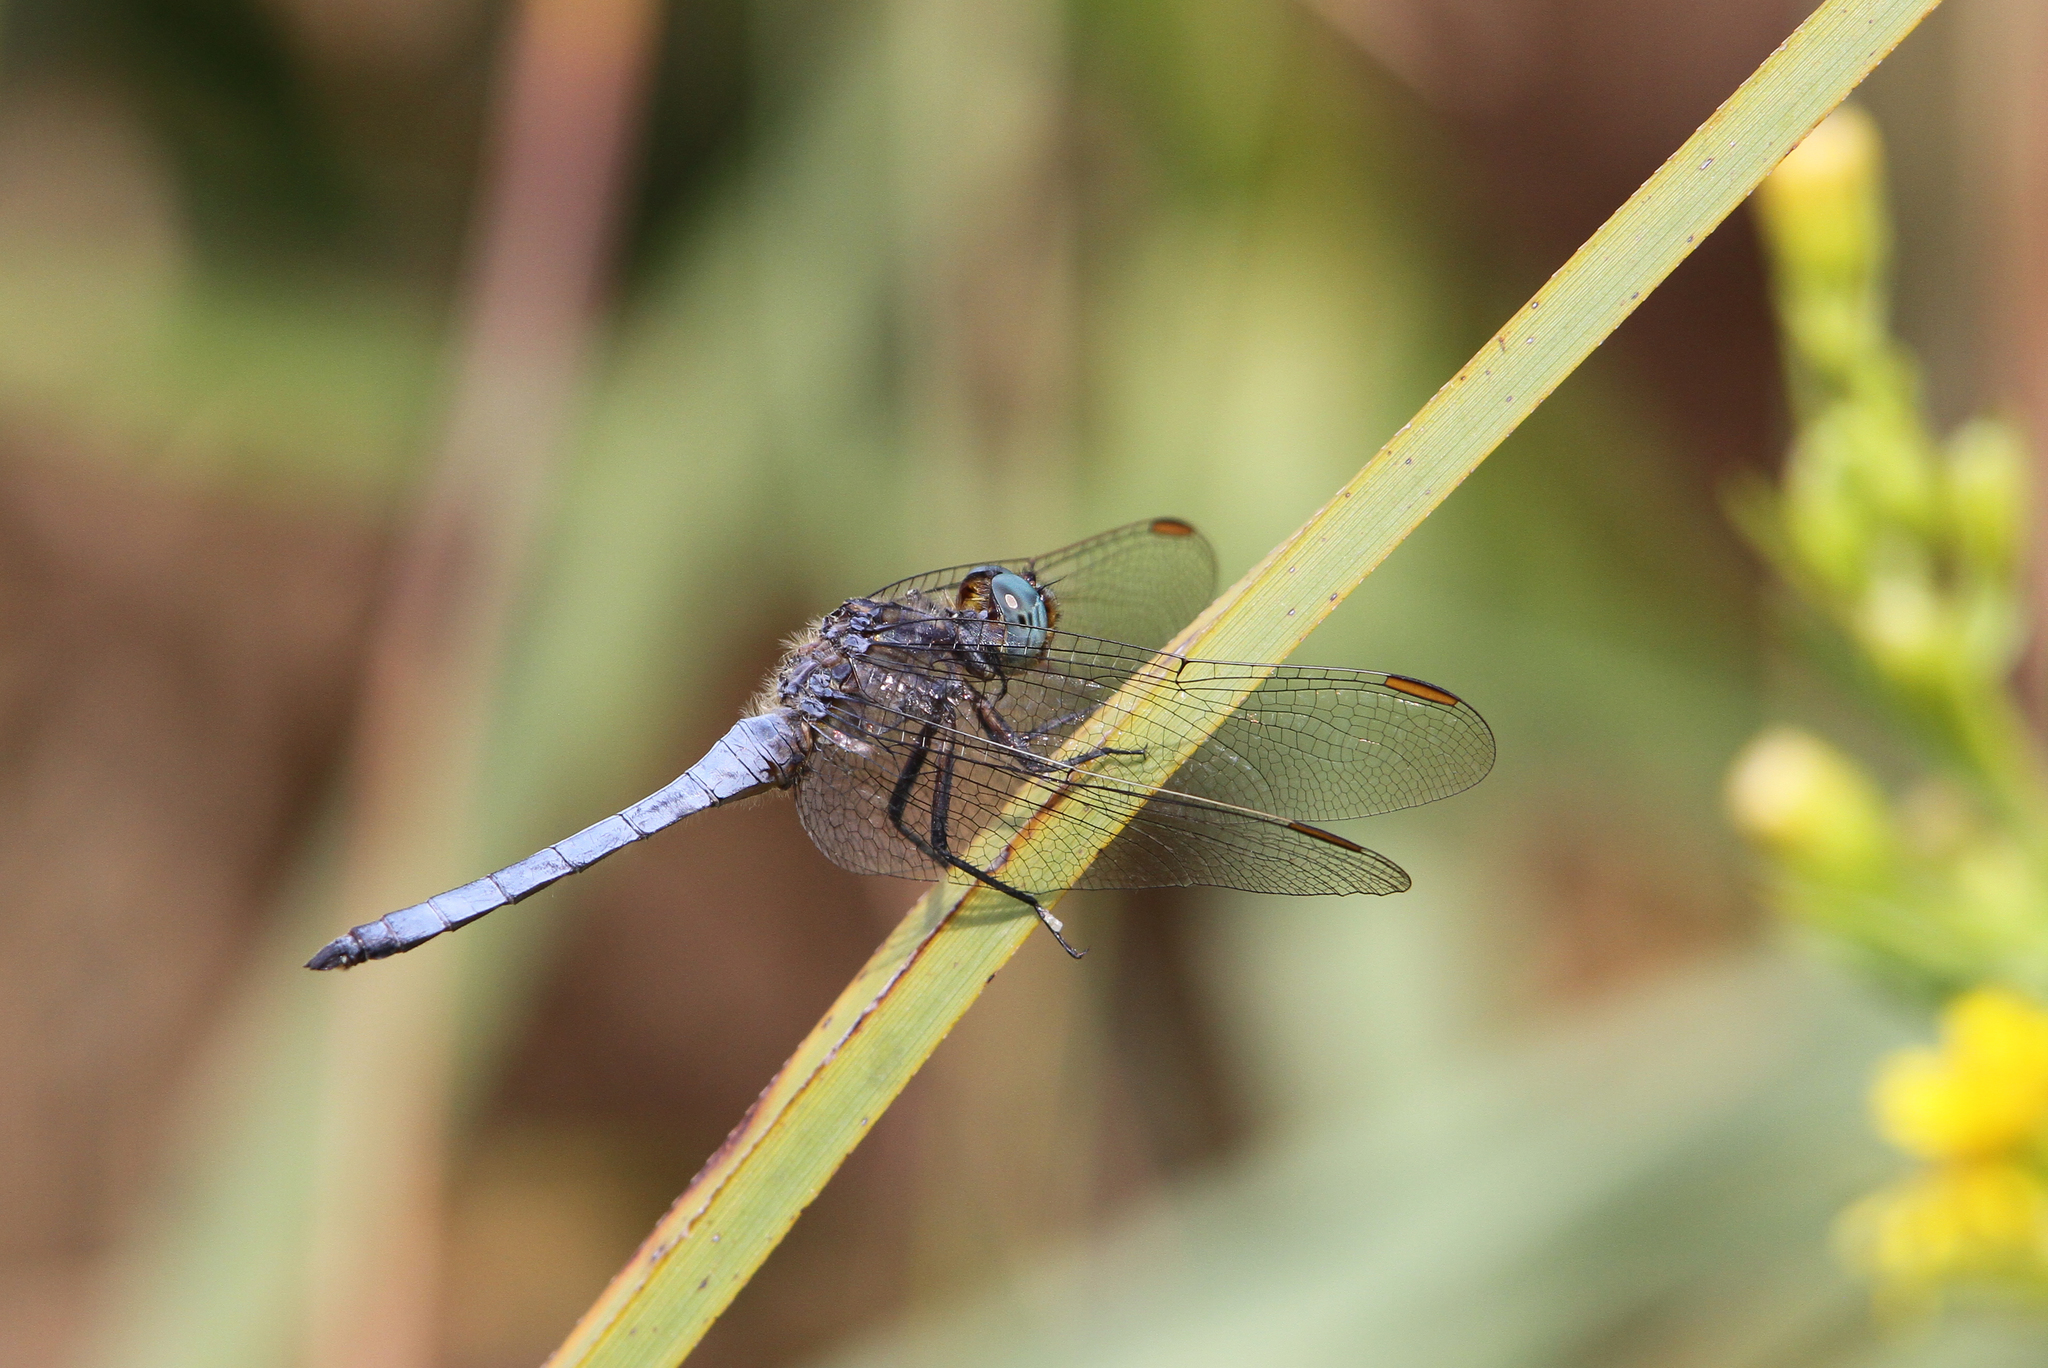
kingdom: Animalia
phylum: Arthropoda
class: Insecta
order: Odonata
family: Libellulidae
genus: Orthetrum
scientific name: Orthetrum coerulescens
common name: Keeled skimmer
